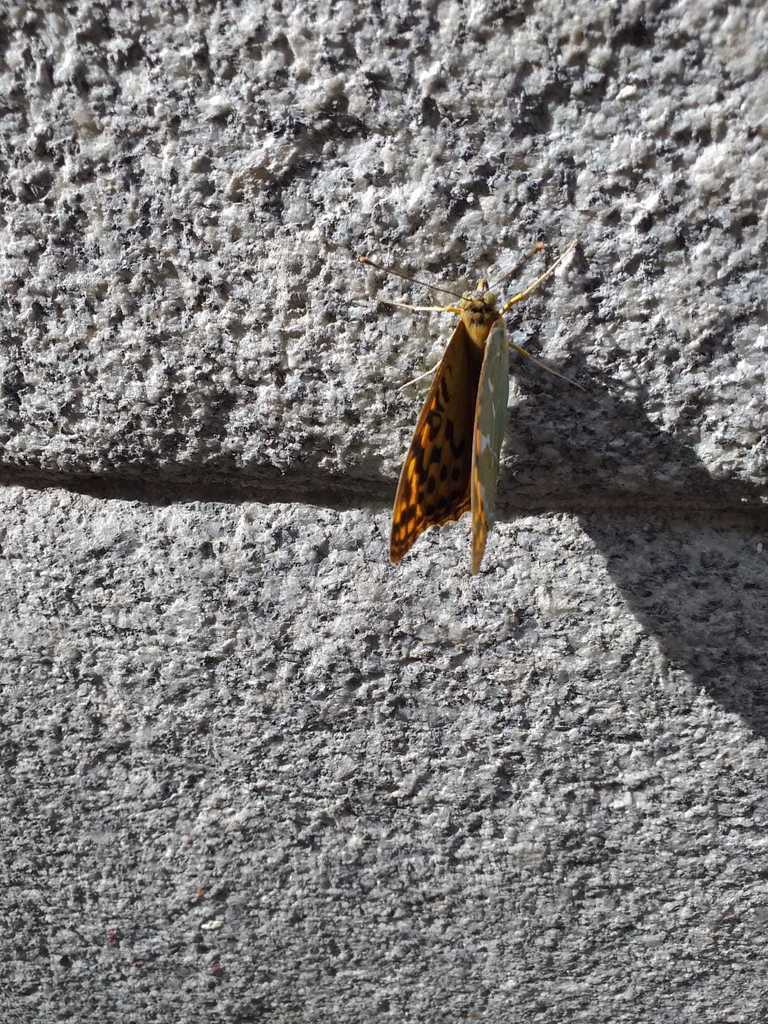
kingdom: Animalia
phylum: Arthropoda
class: Insecta
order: Lepidoptera
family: Nymphalidae
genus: Damora
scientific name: Damora pandora
